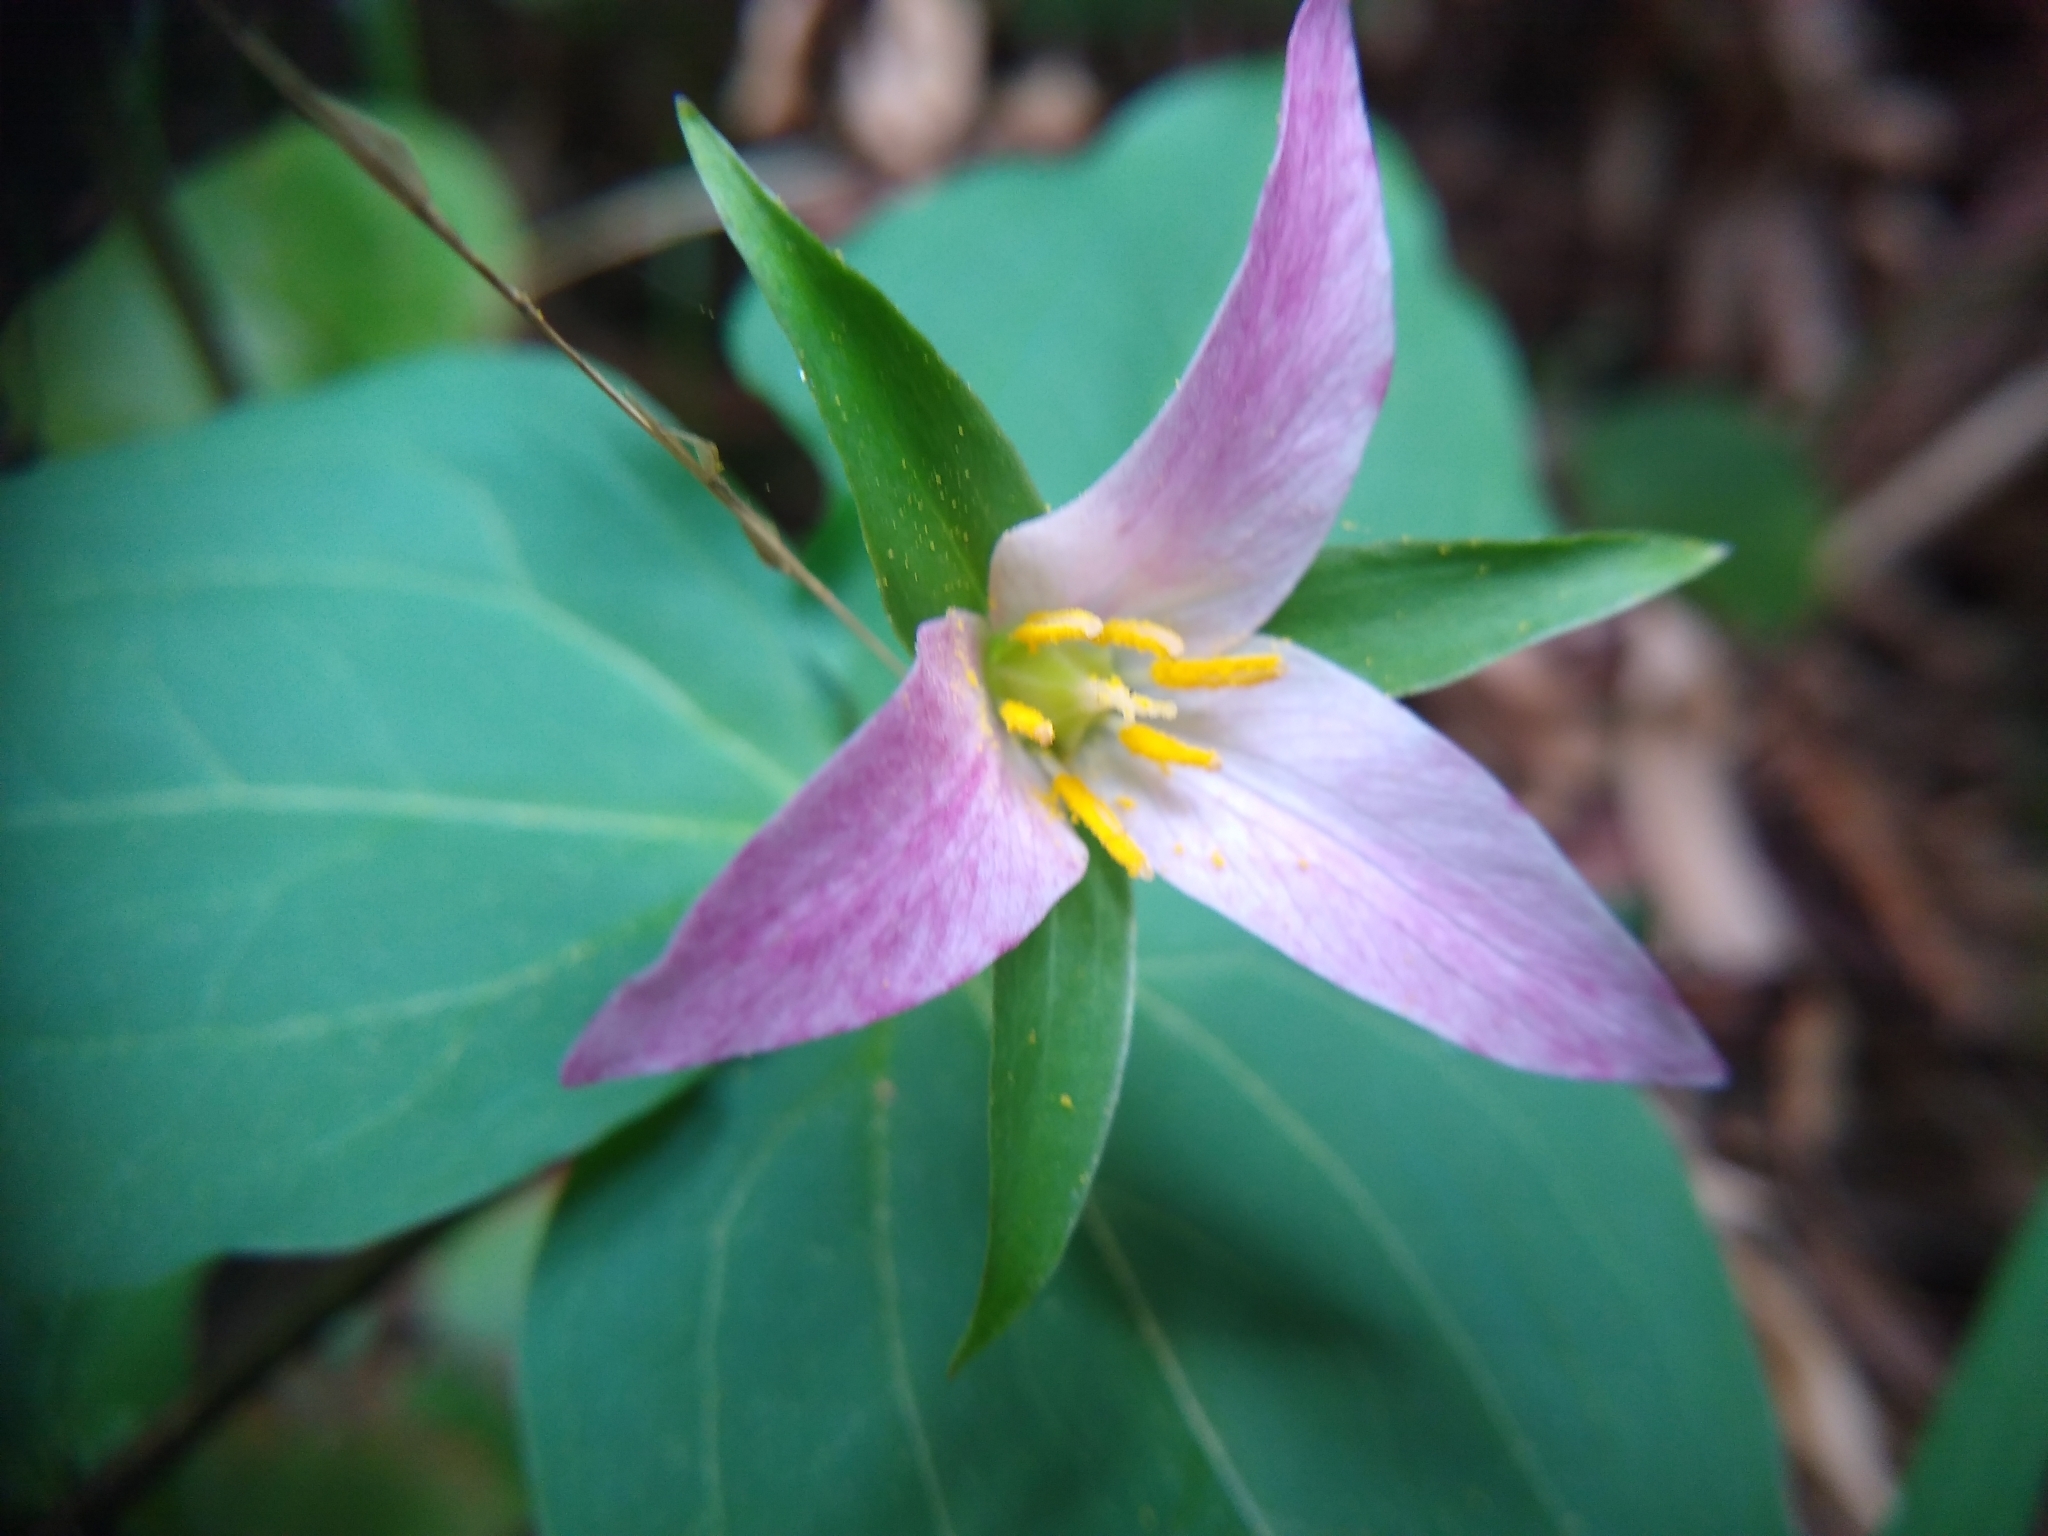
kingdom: Plantae
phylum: Tracheophyta
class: Liliopsida
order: Liliales
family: Melanthiaceae
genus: Trillium
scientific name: Trillium ovatum
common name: Pacific trillium
